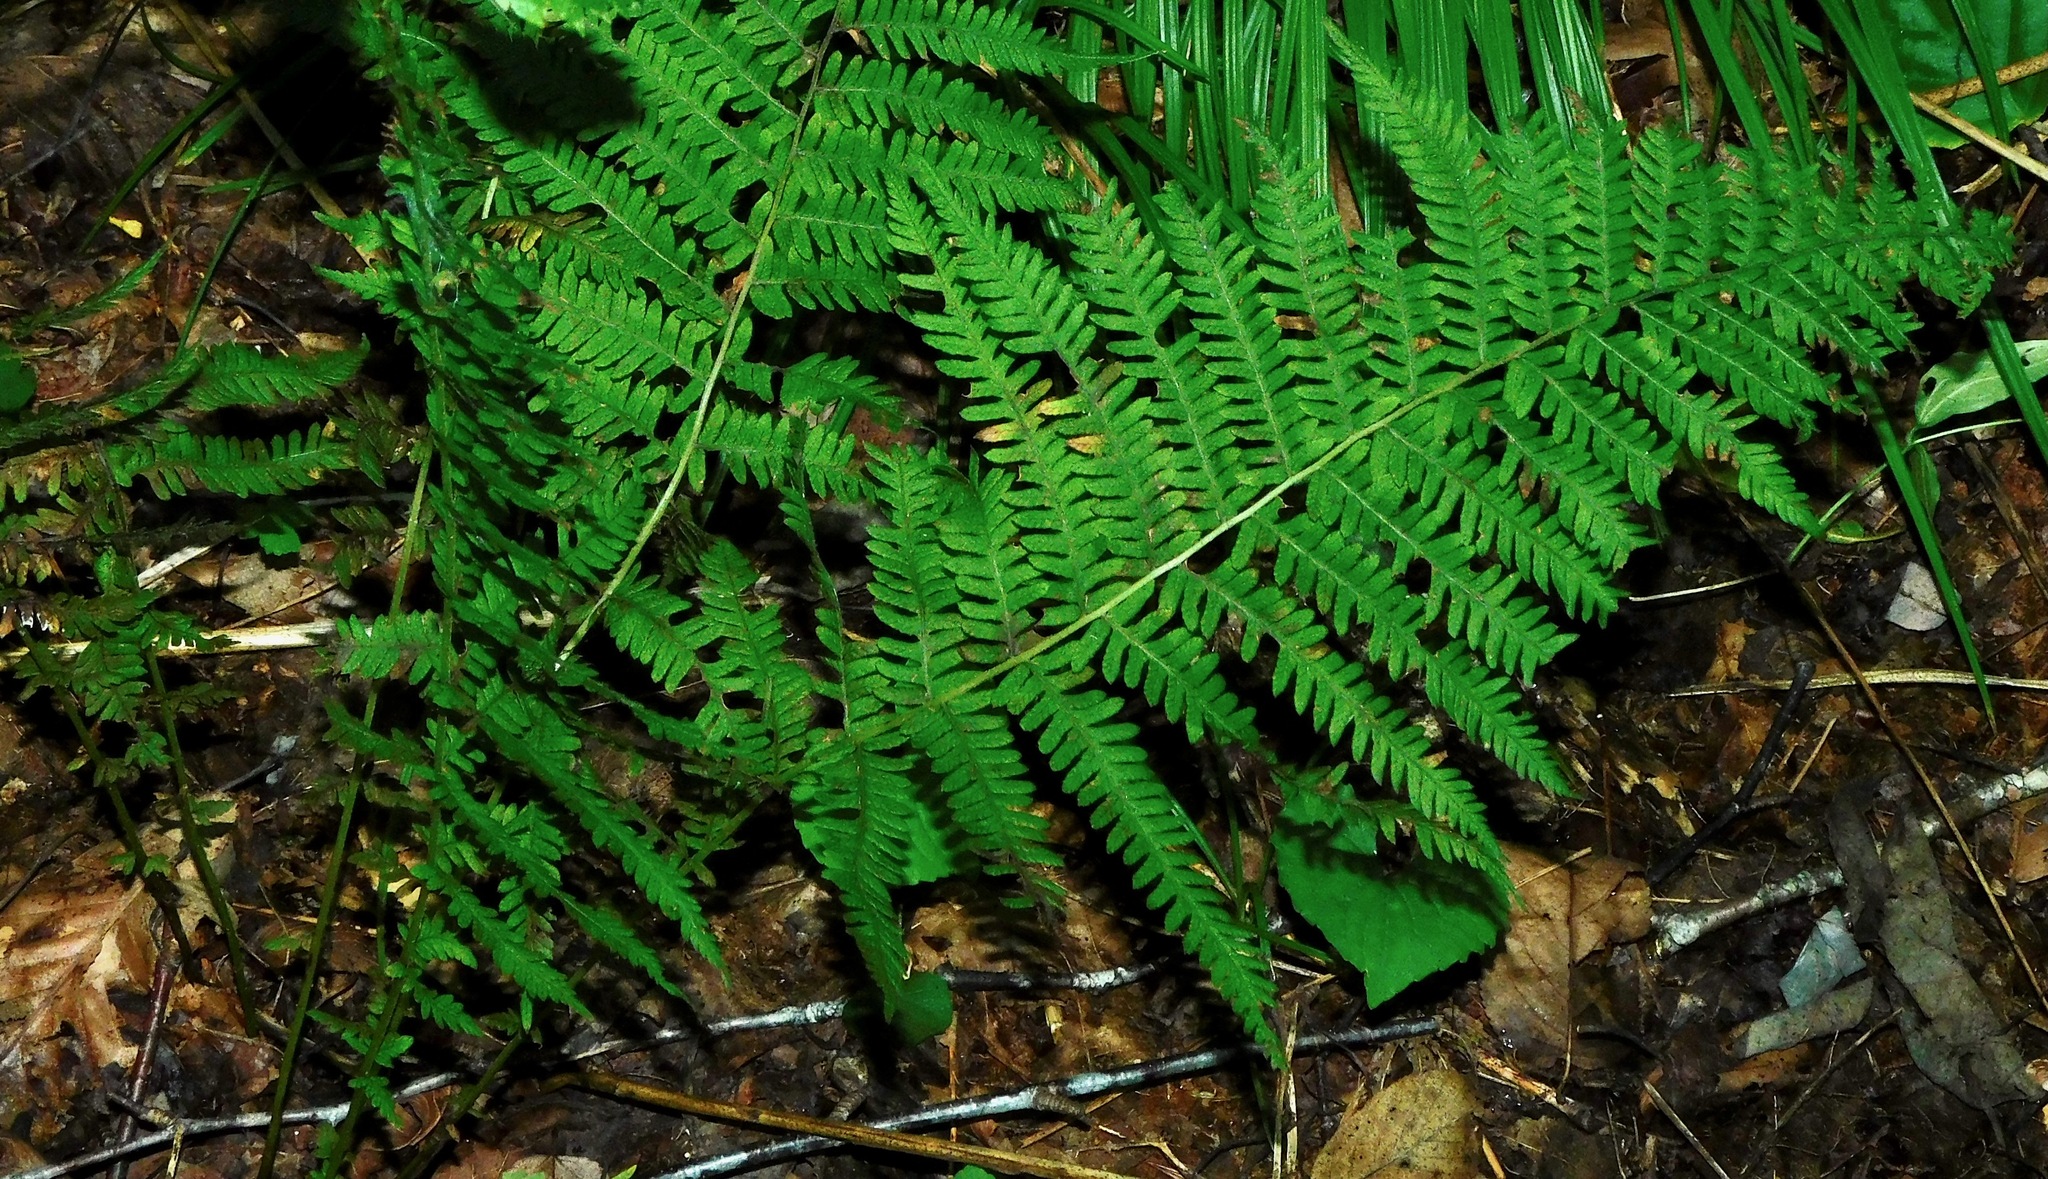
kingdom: Plantae
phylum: Tracheophyta
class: Polypodiopsida
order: Polypodiales
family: Thelypteridaceae
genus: Amauropelta
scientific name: Amauropelta noveboracensis
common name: New york fern
